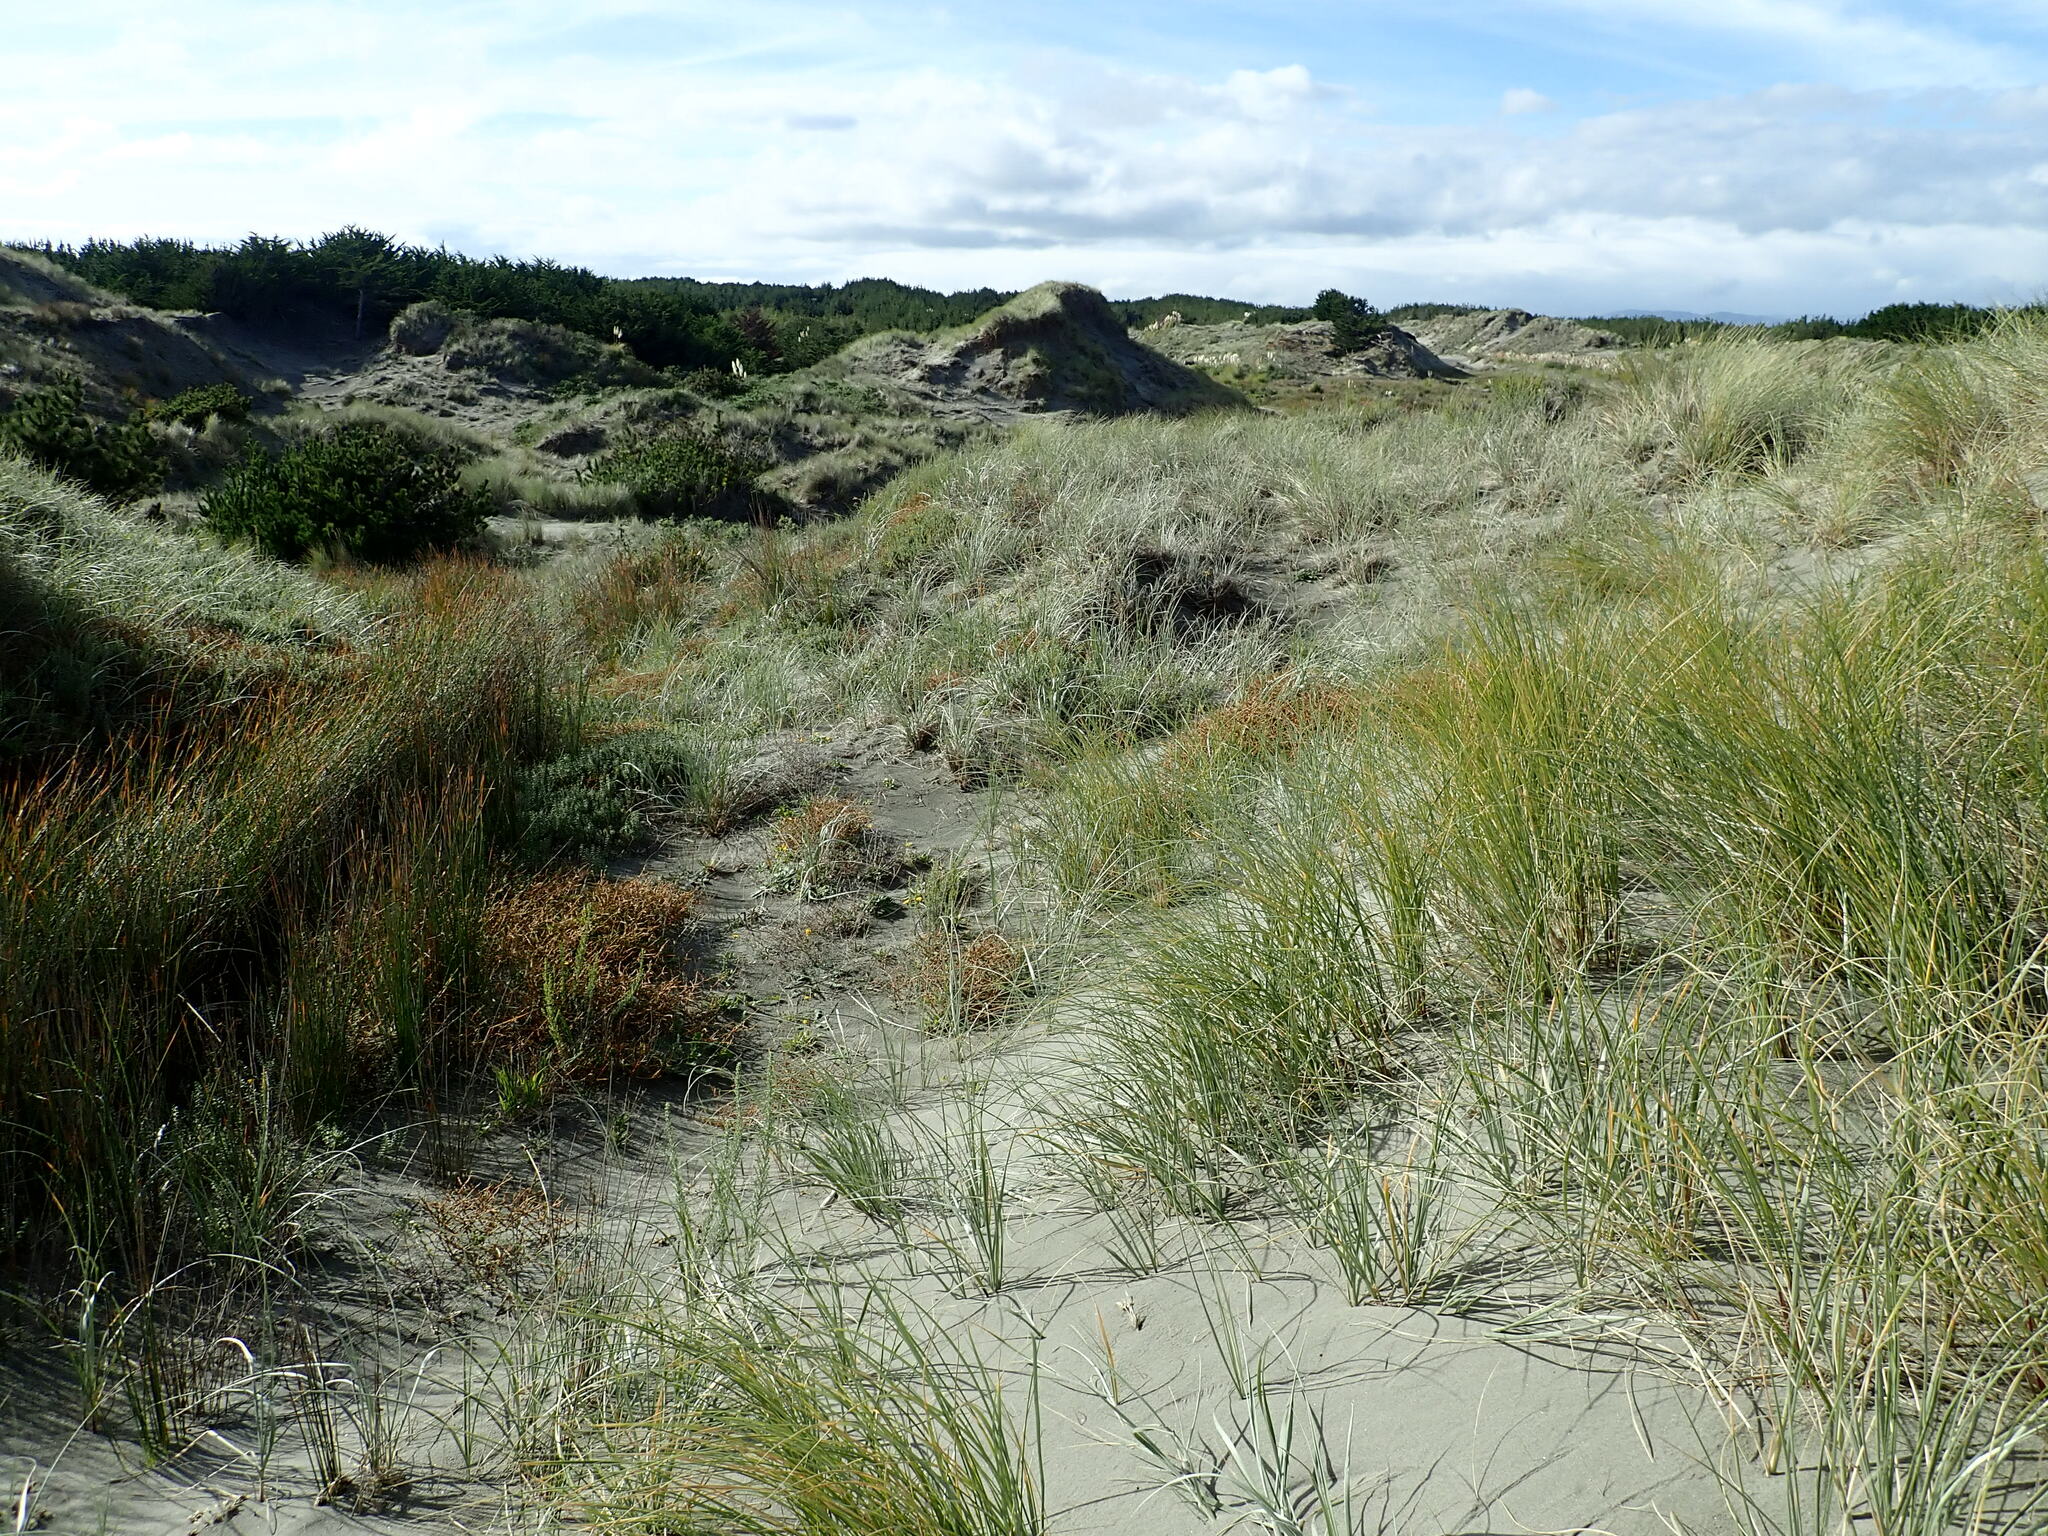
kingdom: Plantae
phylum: Tracheophyta
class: Magnoliopsida
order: Gentianales
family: Rubiaceae
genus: Coprosma
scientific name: Coprosma acerosa
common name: Sand coprosma
